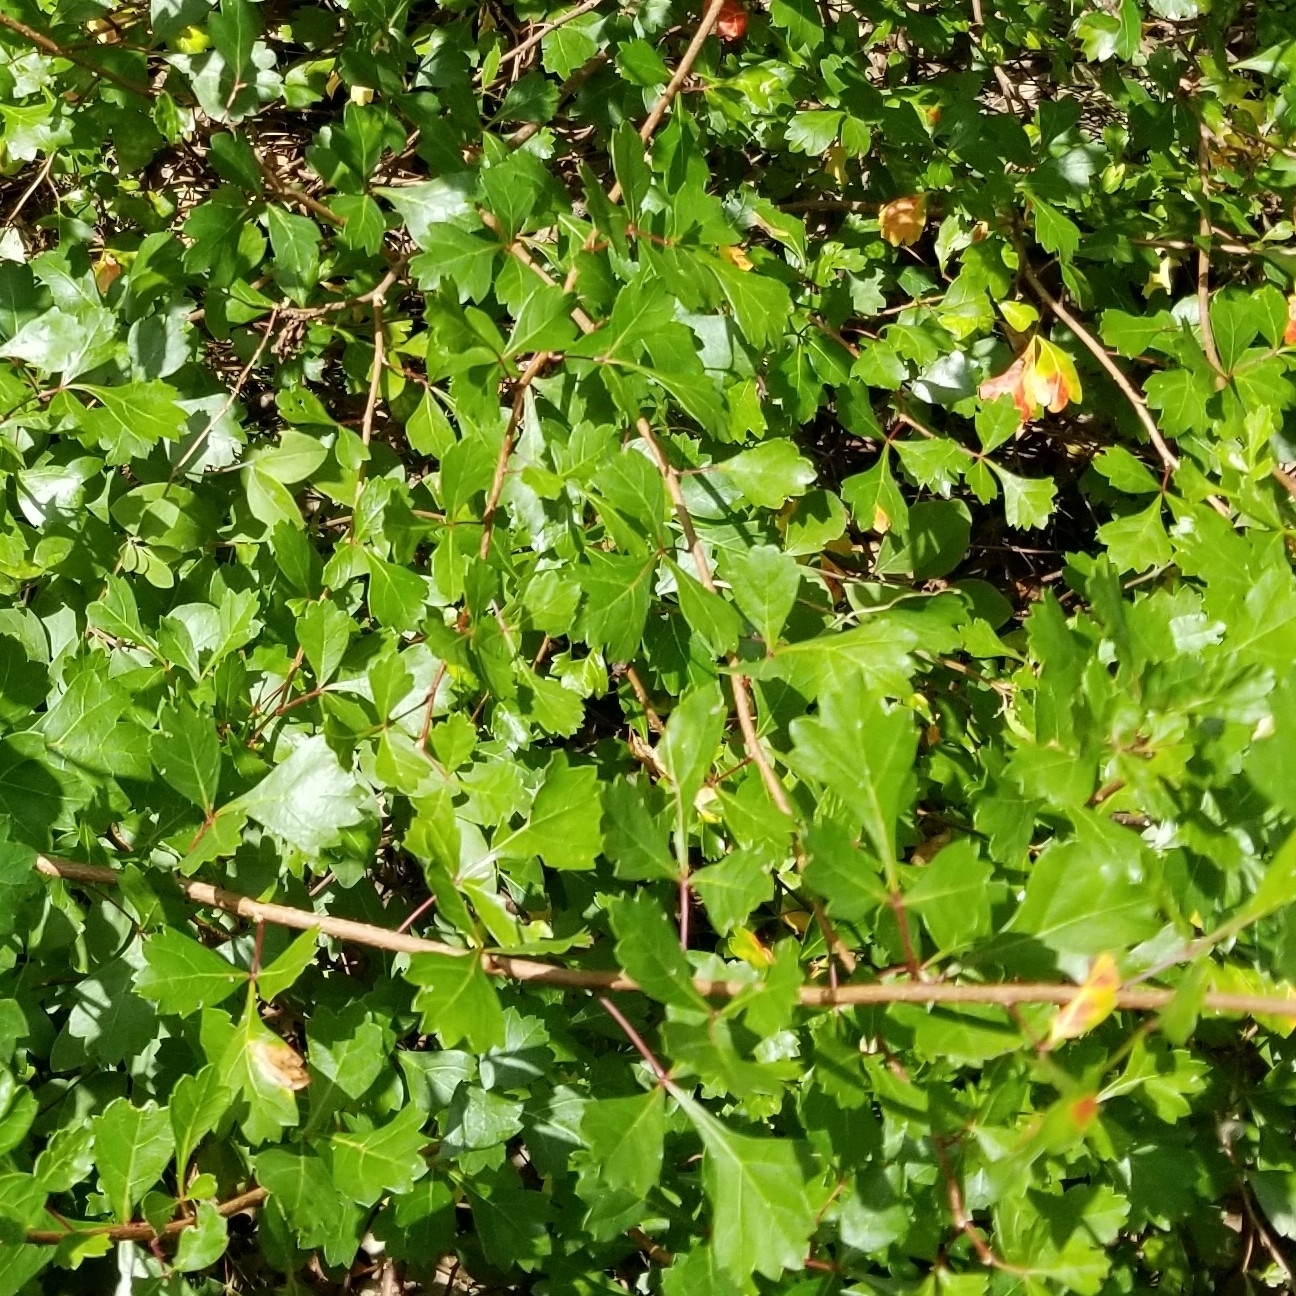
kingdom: Plantae
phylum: Tracheophyta
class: Magnoliopsida
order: Sapindales
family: Anacardiaceae
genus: Rhus
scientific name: Rhus aromatica
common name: Aromatic sumac
